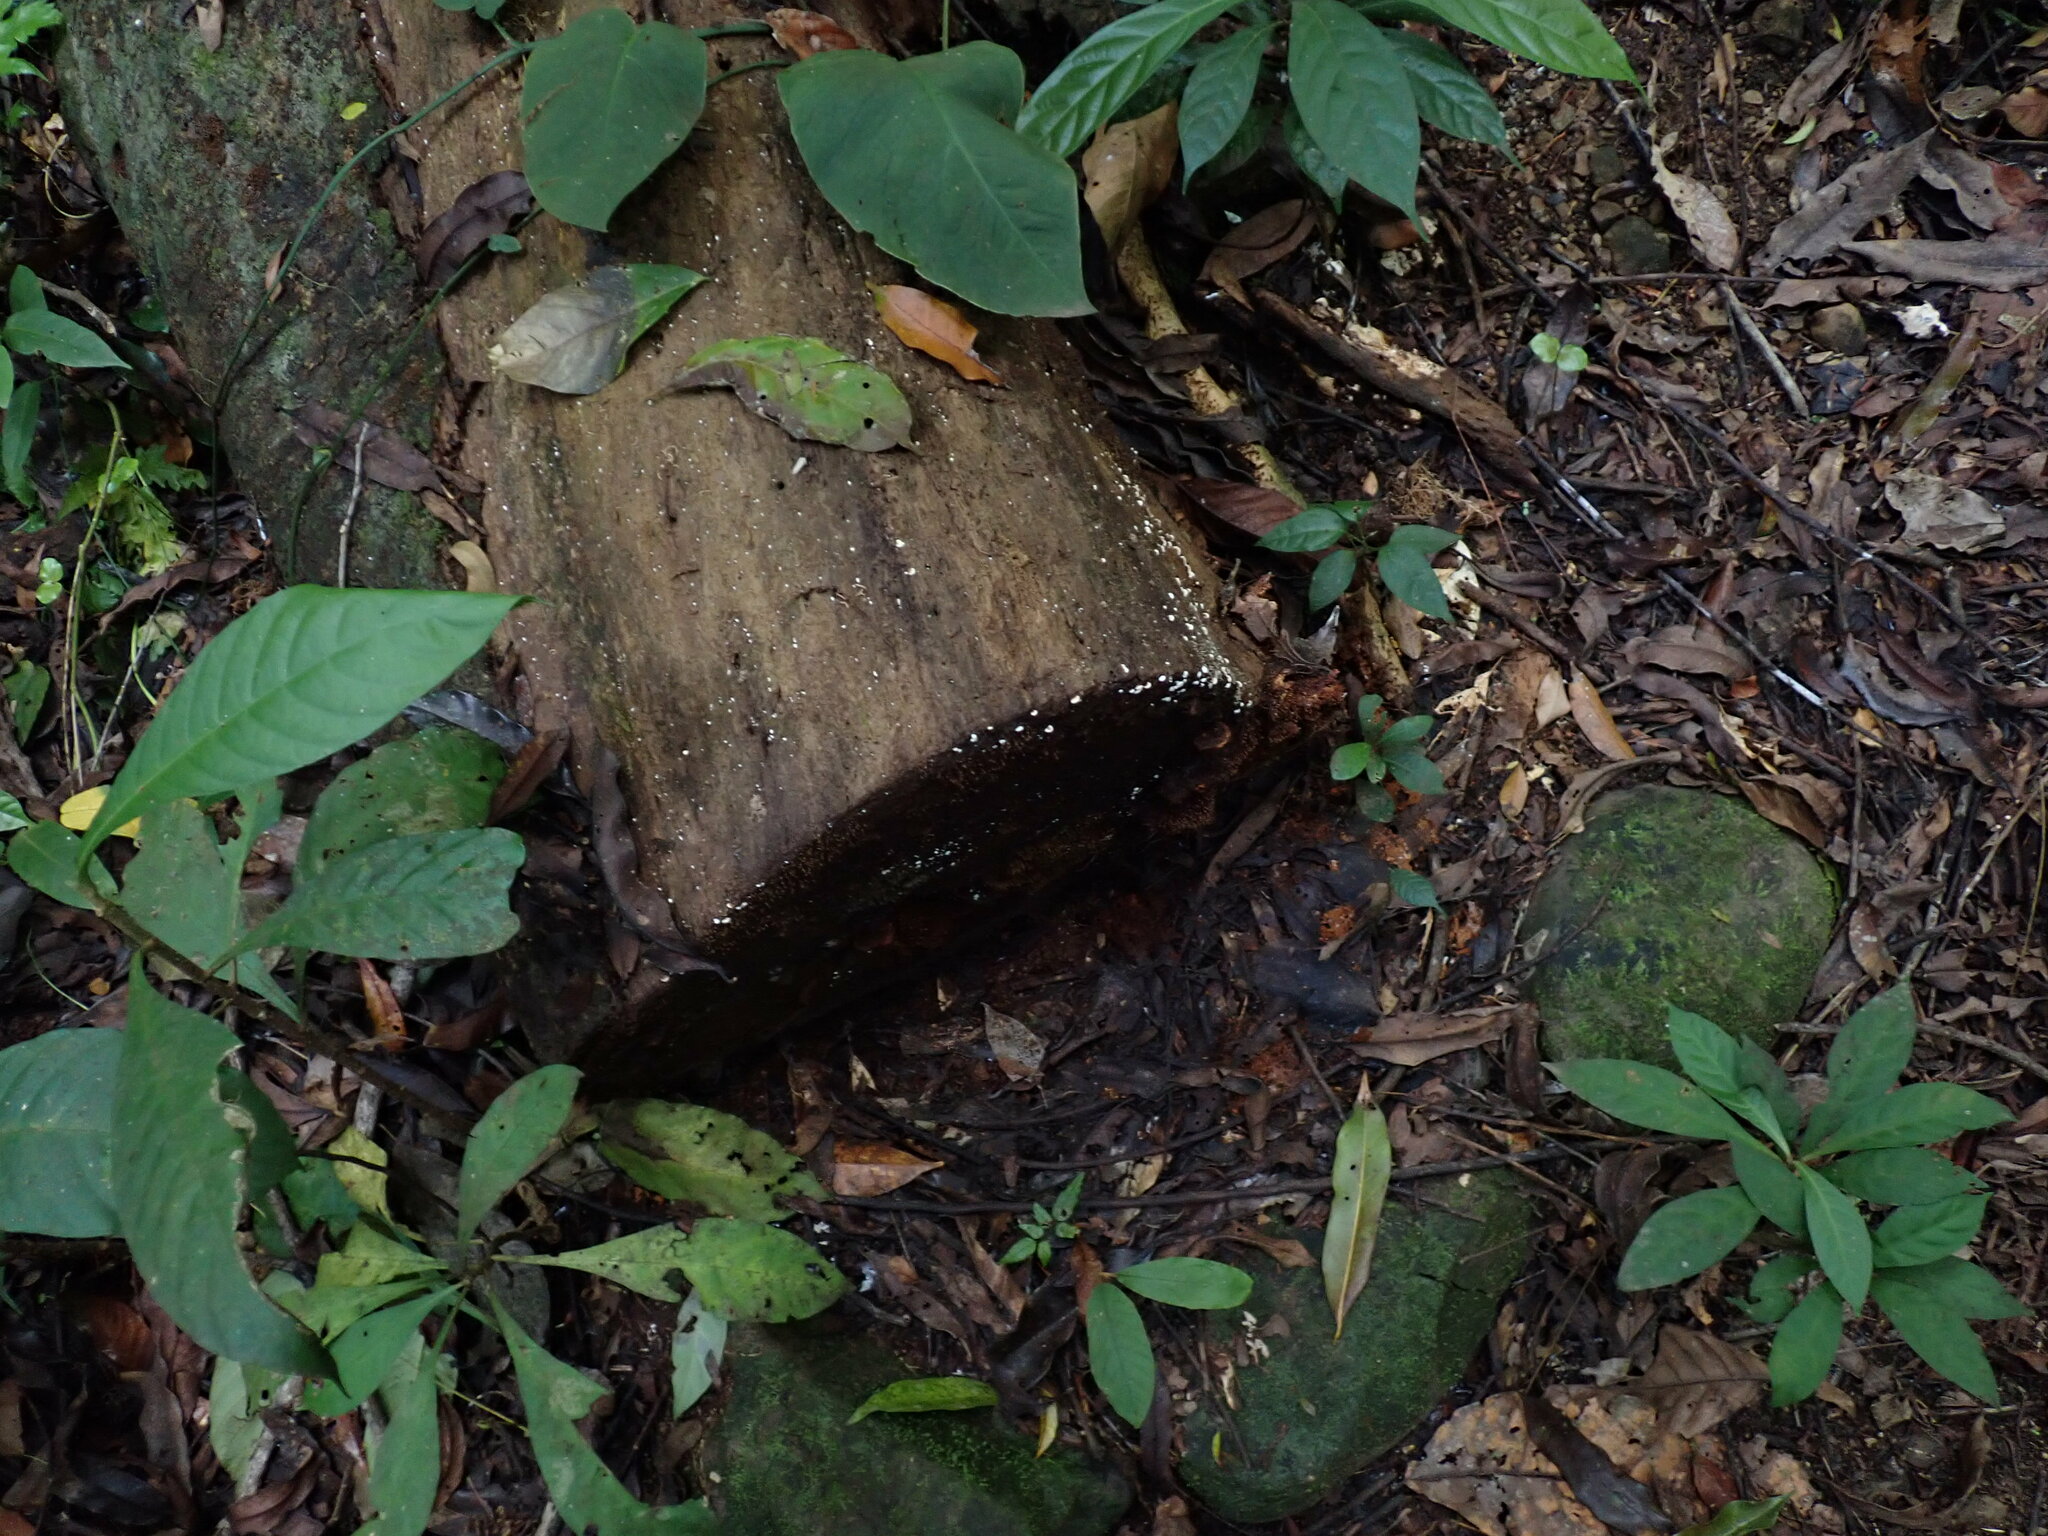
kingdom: Protozoa
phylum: Mycetozoa
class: Myxomycetes
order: Physarales
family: Physaraceae
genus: Physarella
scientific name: Physarella oblonga
